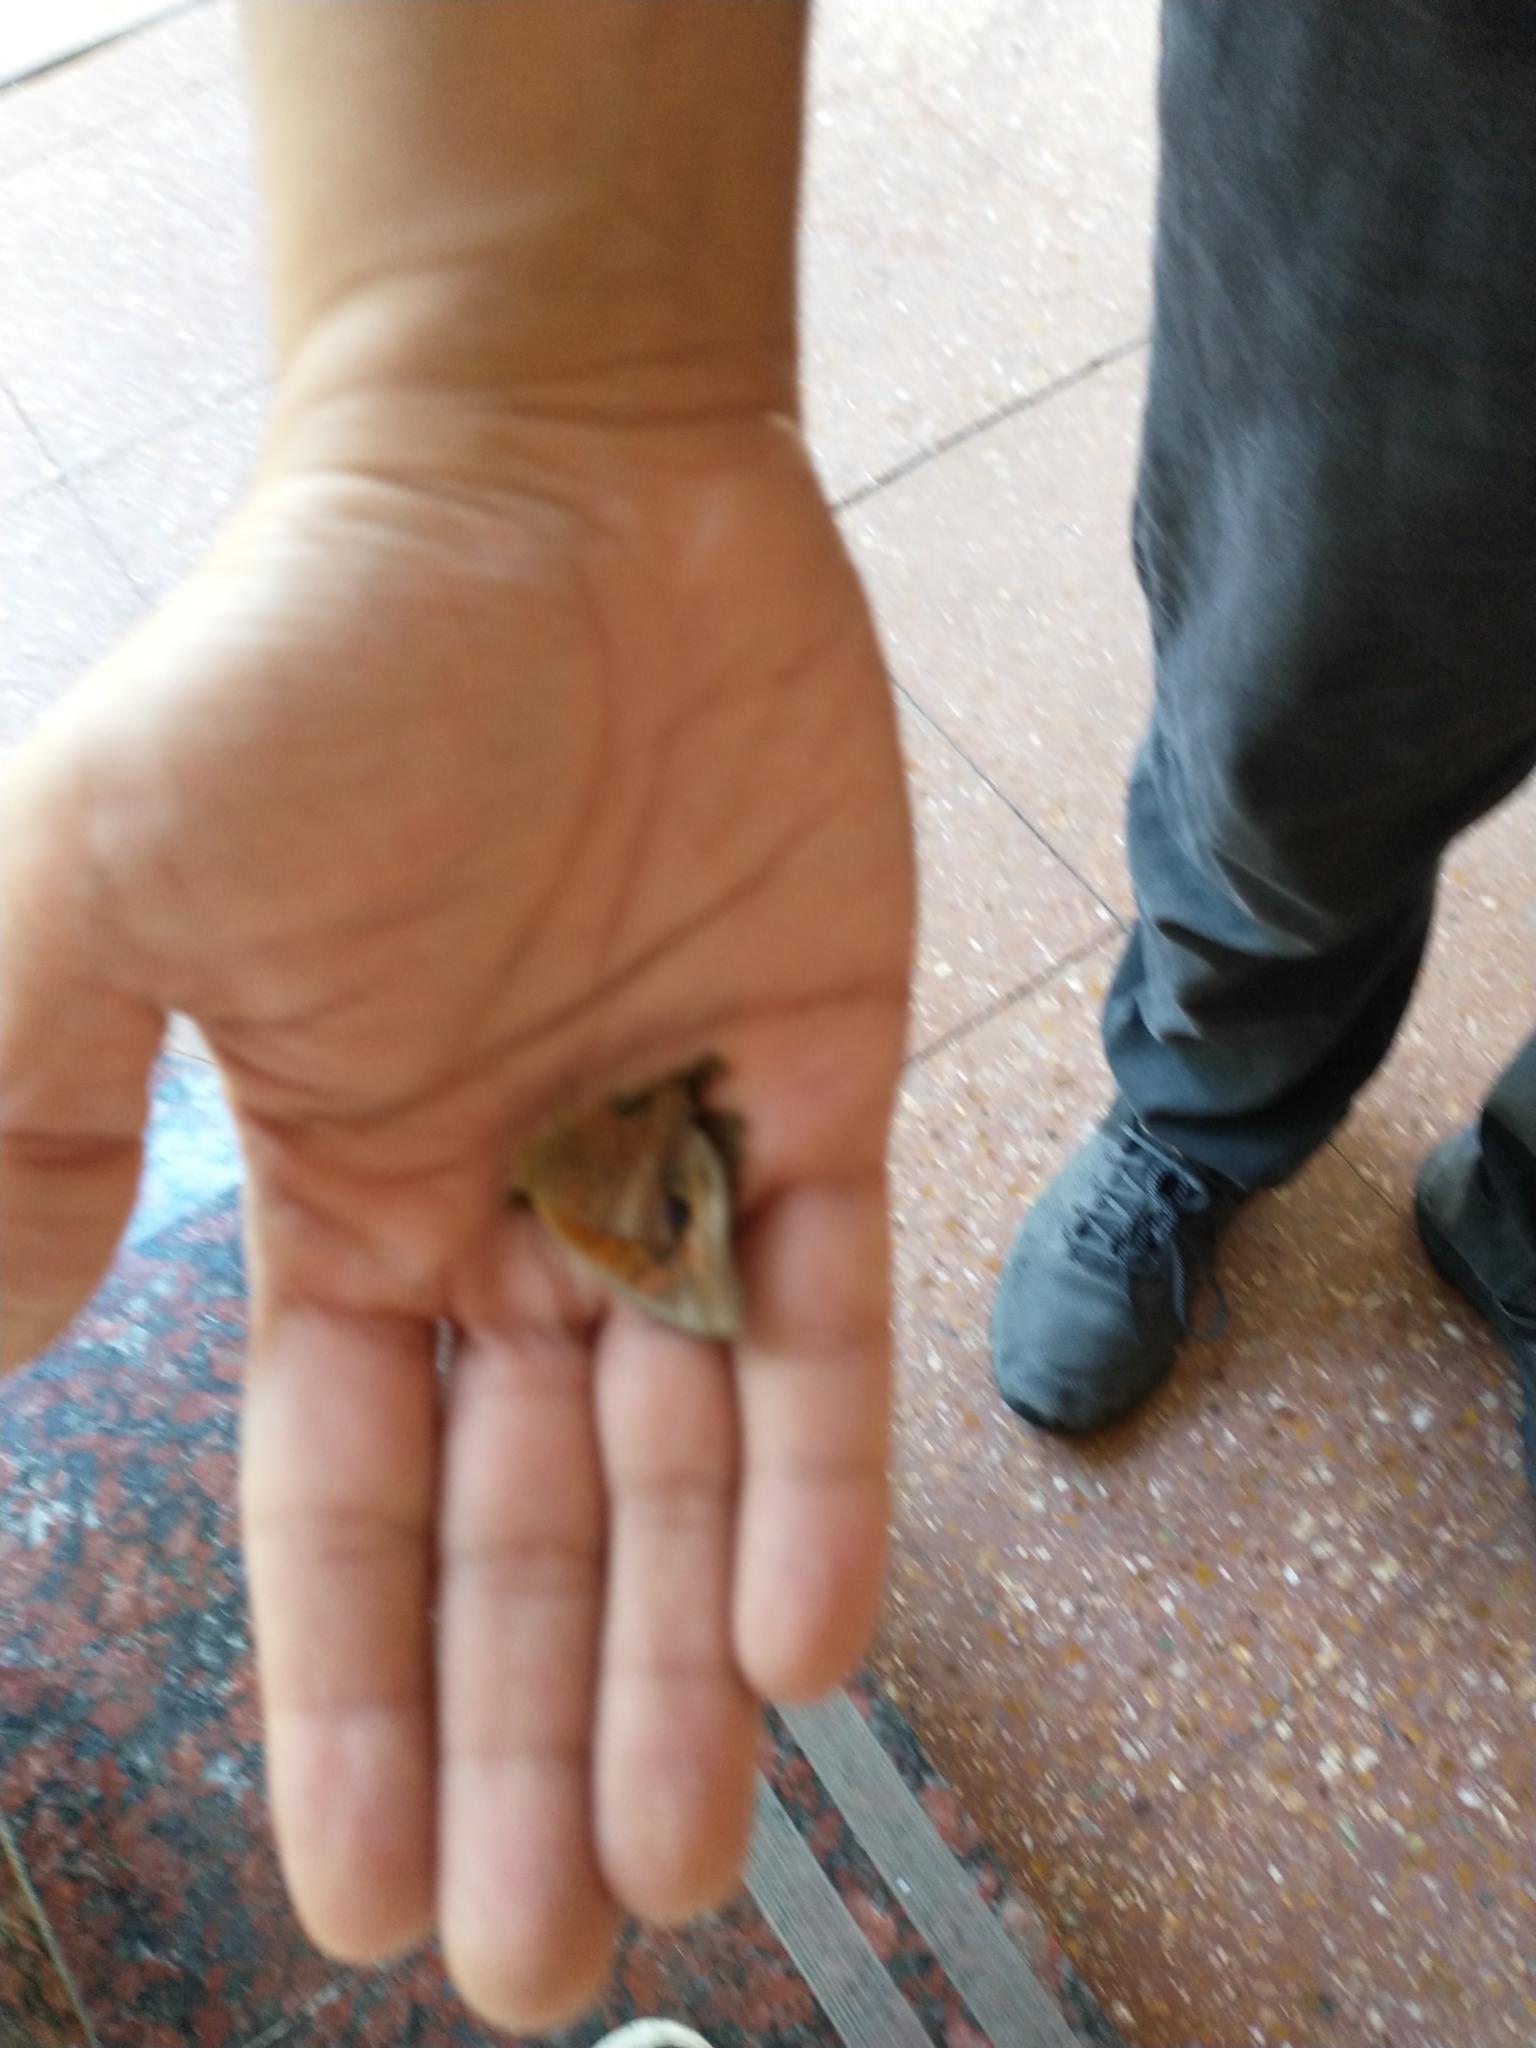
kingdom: Animalia
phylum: Arthropoda
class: Insecta
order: Lepidoptera
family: Nymphalidae
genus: Junonia
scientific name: Junonia lavinia
